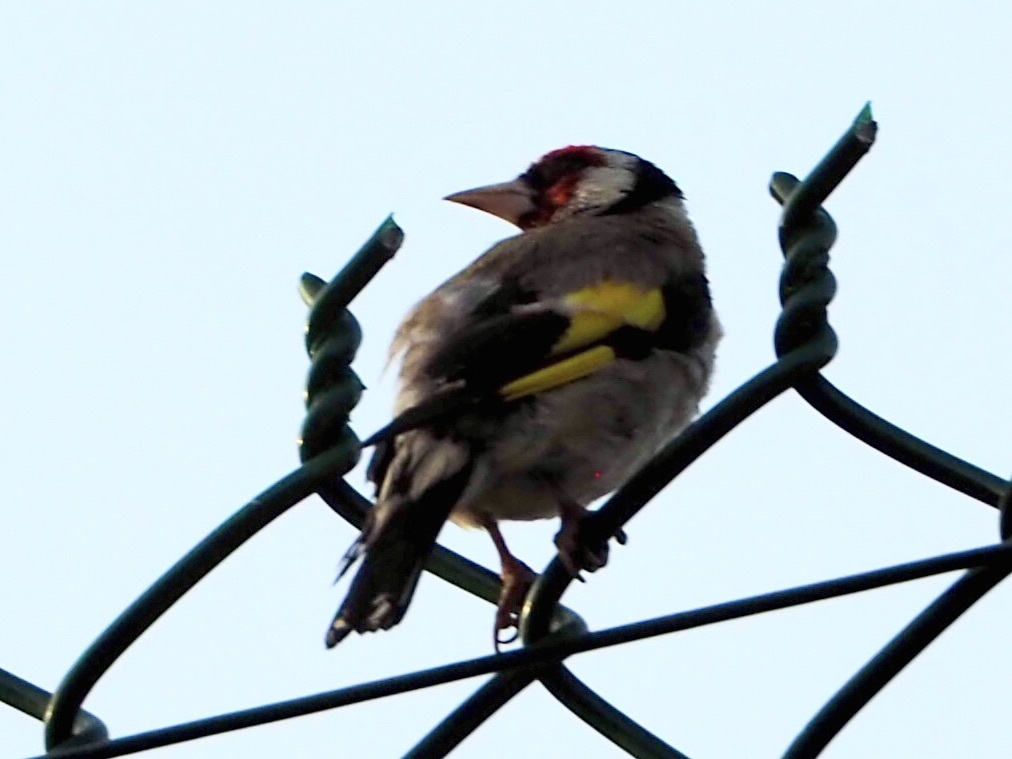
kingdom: Animalia
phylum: Chordata
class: Aves
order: Passeriformes
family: Fringillidae
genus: Carduelis
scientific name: Carduelis carduelis
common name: European goldfinch
